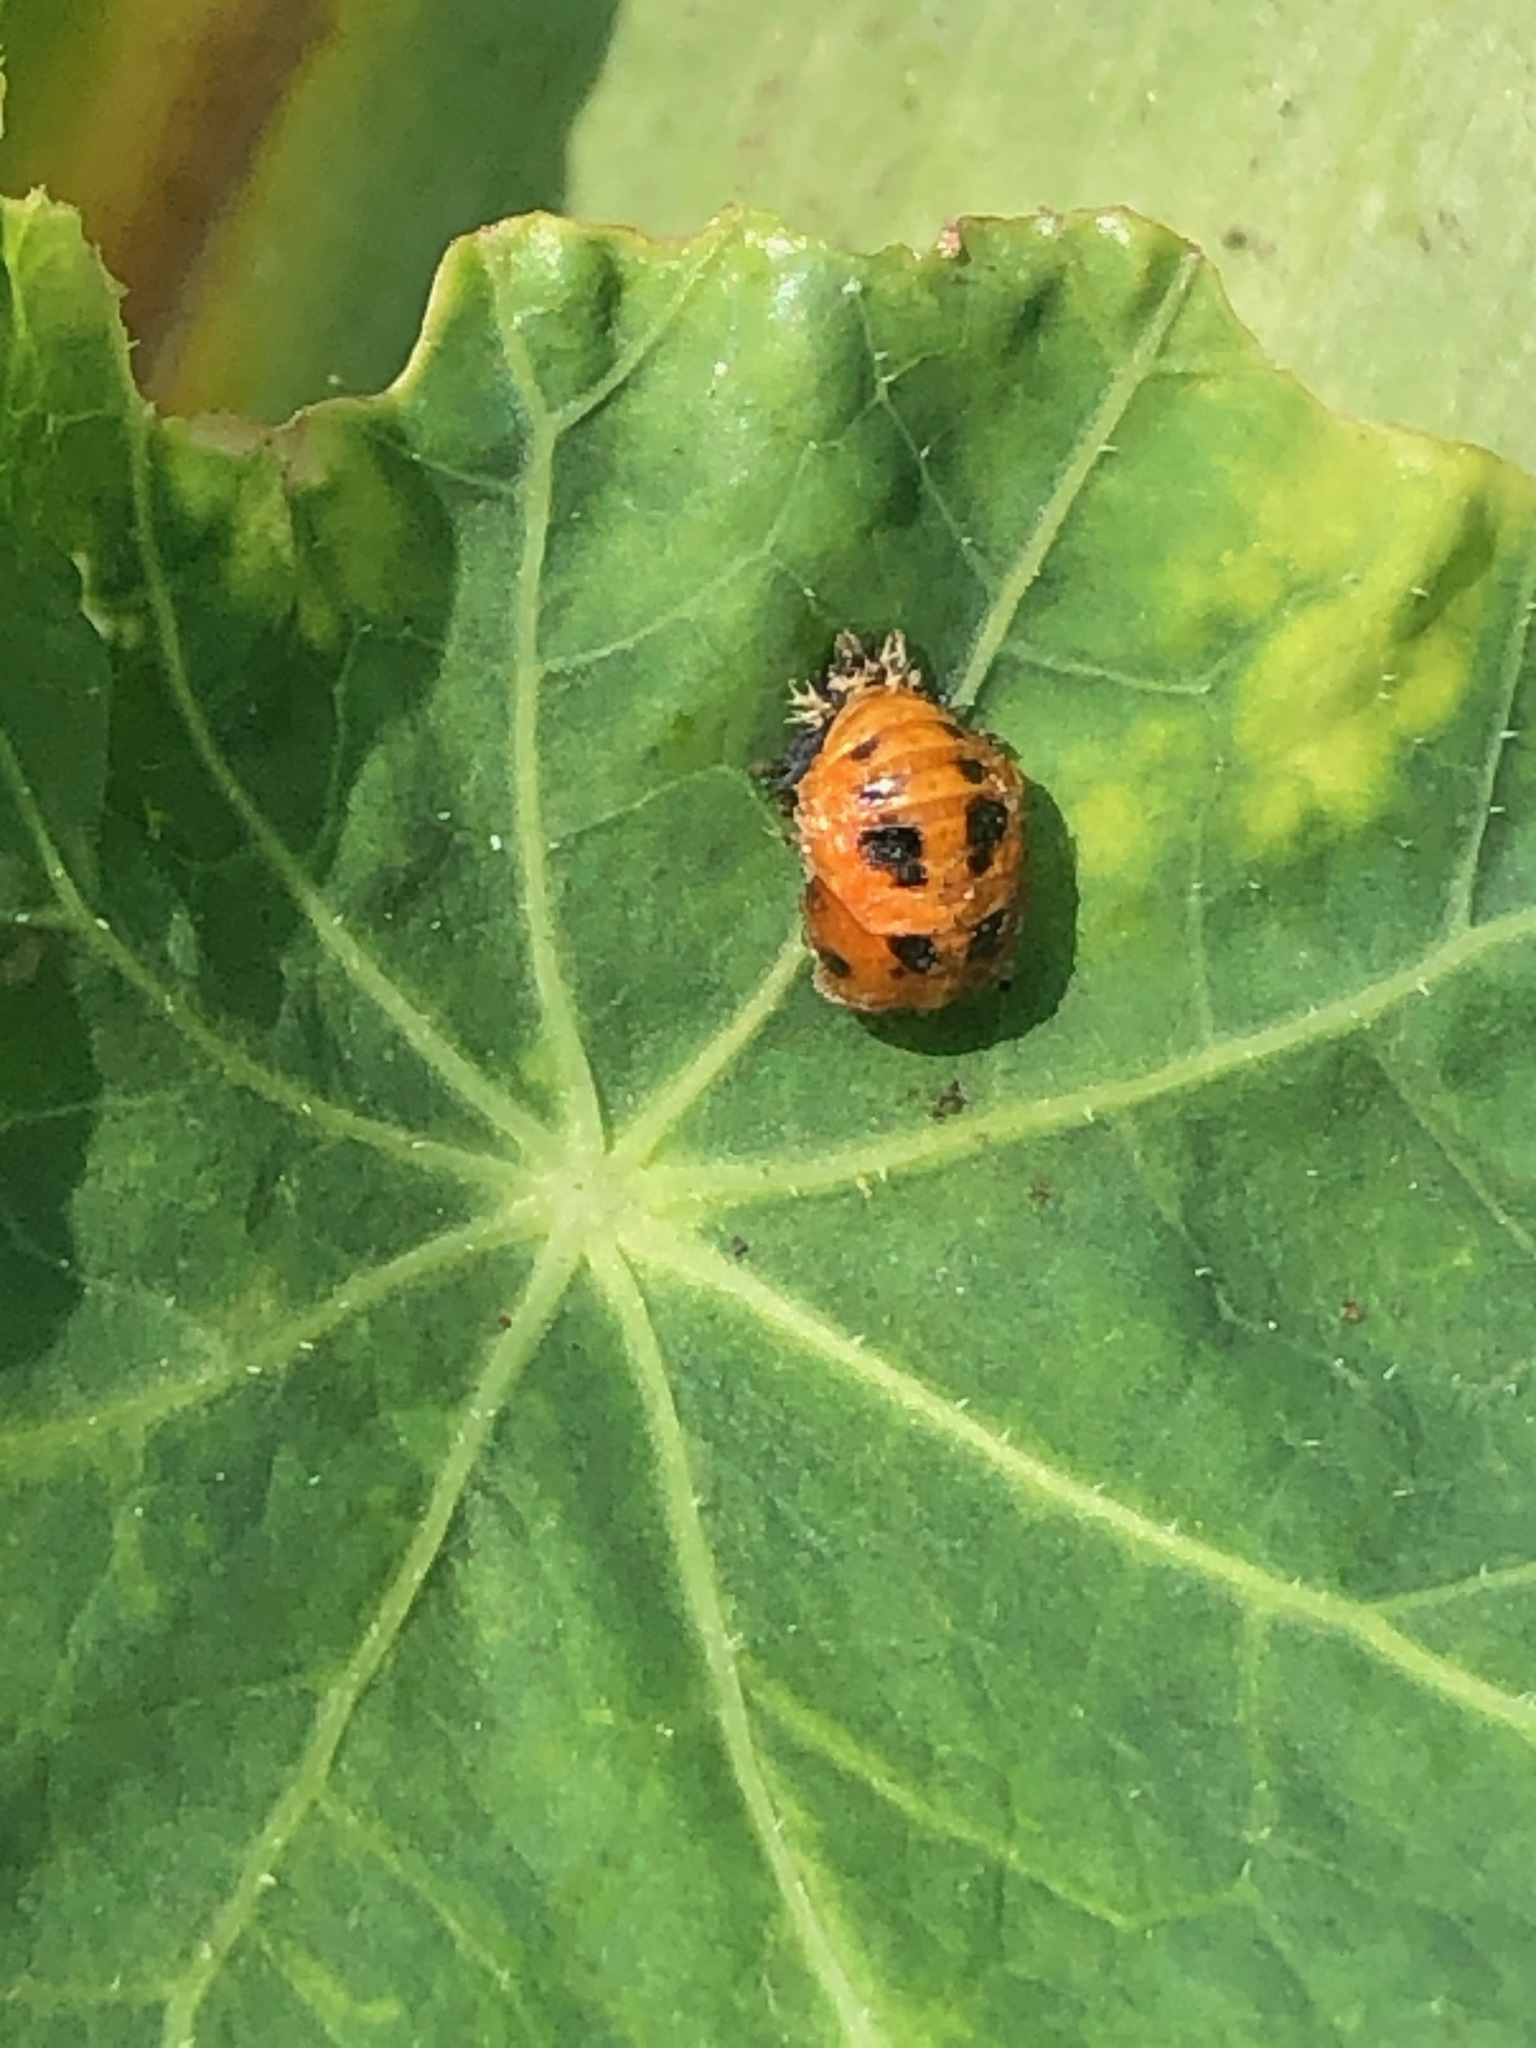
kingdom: Animalia
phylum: Arthropoda
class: Insecta
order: Coleoptera
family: Coccinellidae
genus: Harmonia
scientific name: Harmonia axyridis
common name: Harlequin ladybird
